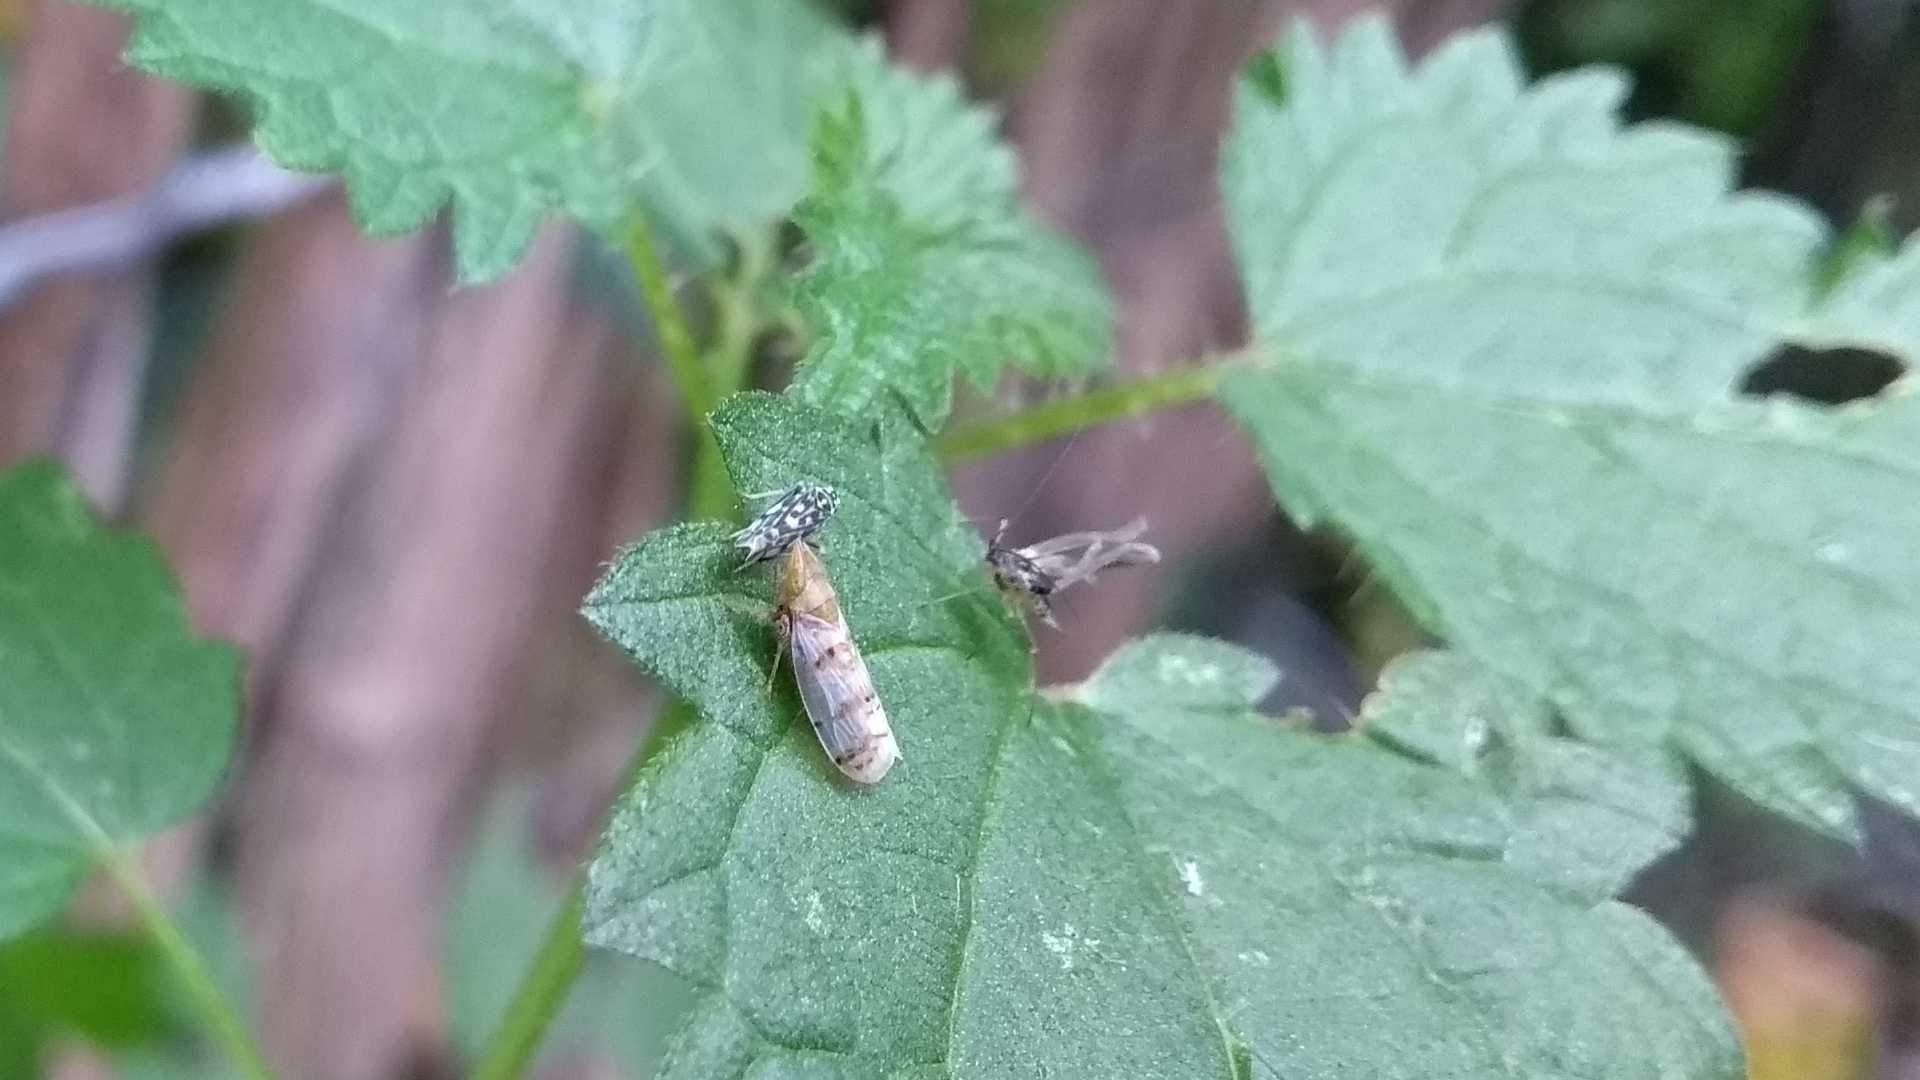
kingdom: Animalia
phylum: Arthropoda
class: Insecta
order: Hemiptera
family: Cicadellidae
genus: Japananus
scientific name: Japananus hyalinus
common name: The japanese maple leafhopper
